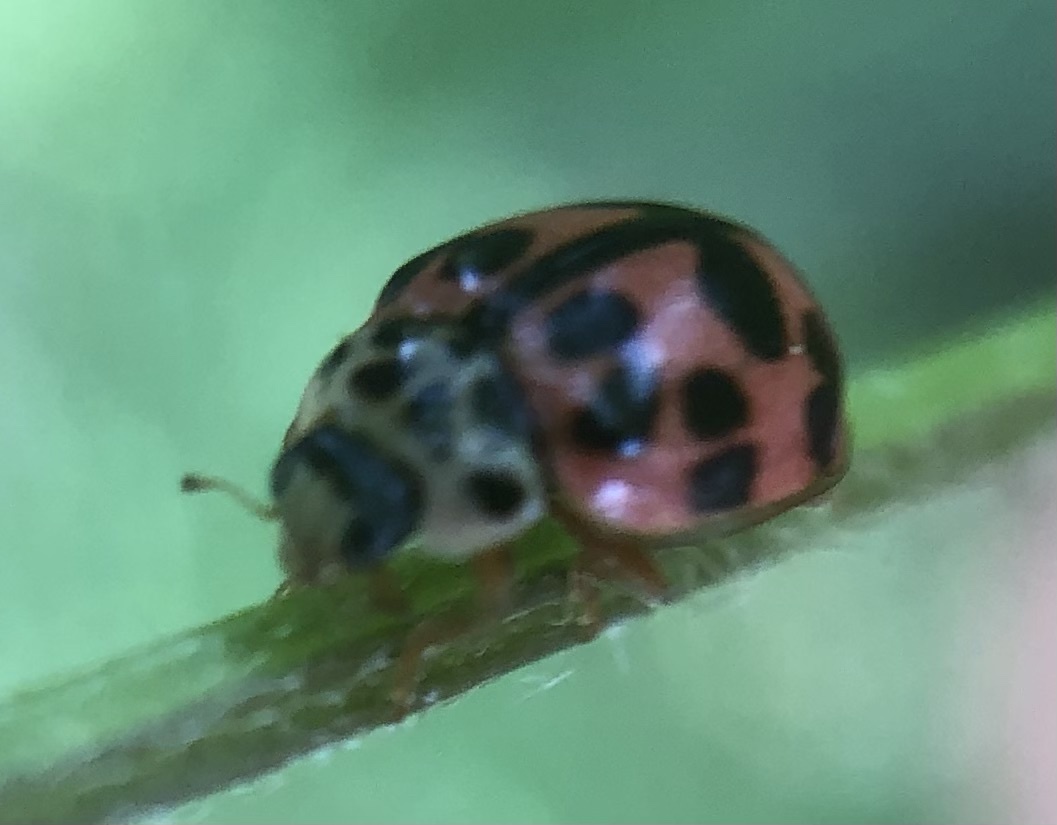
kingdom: Animalia
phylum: Arthropoda
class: Insecta
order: Coleoptera
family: Coccinellidae
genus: Oenopia
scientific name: Oenopia conglobata
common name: Ladybird beetle
